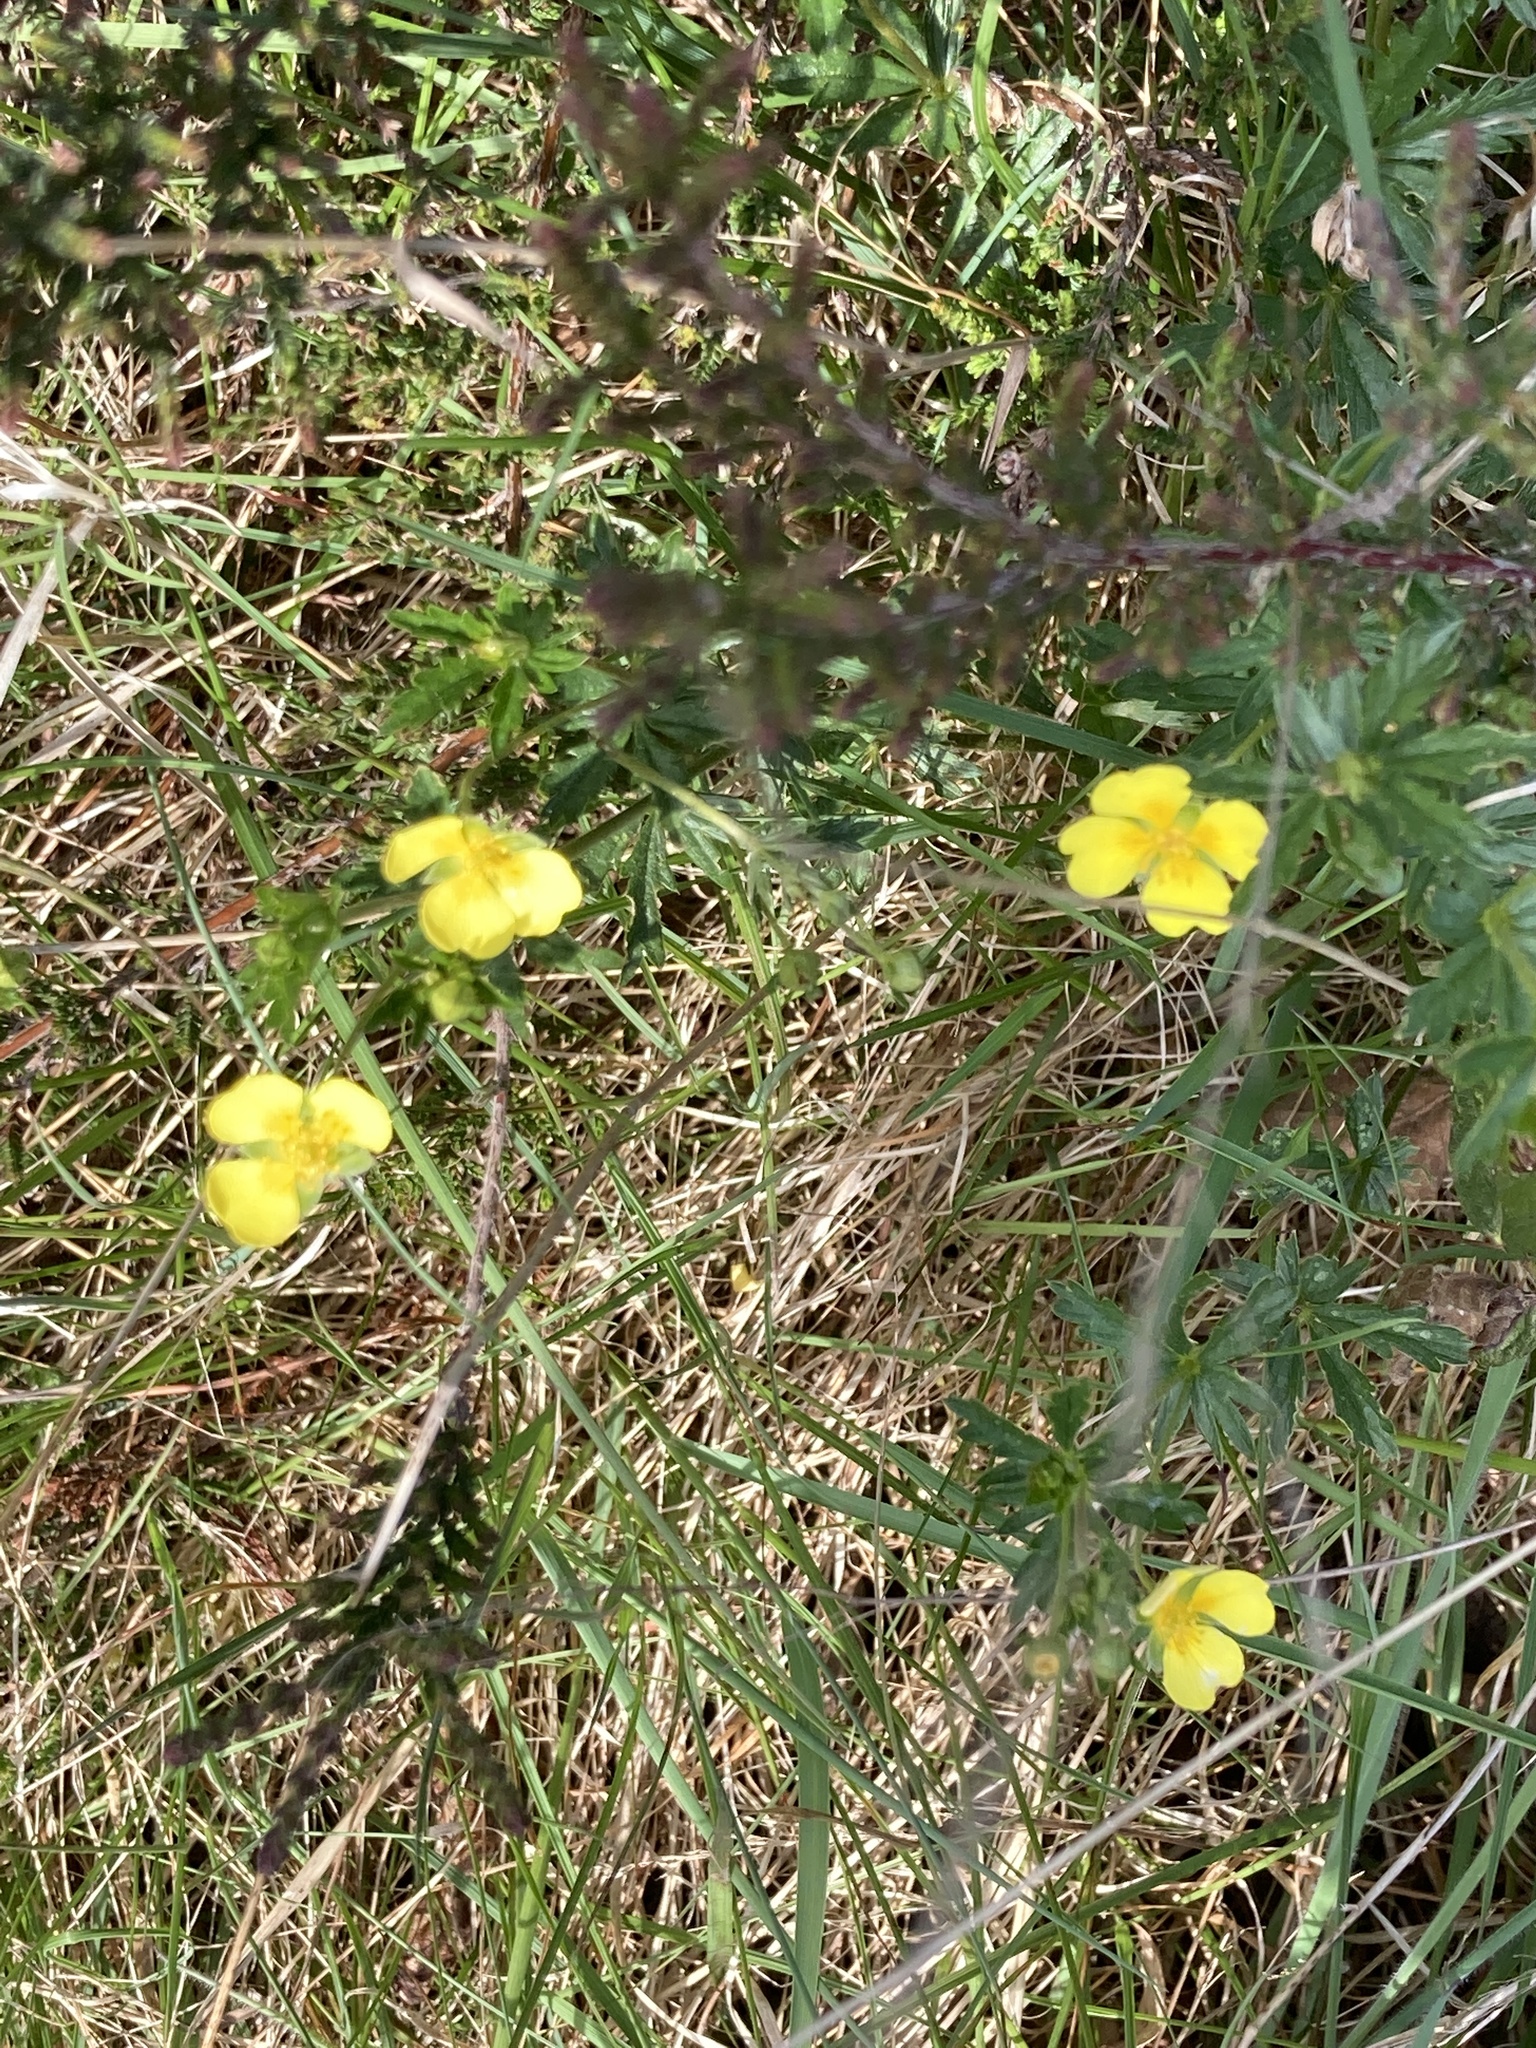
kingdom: Plantae
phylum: Tracheophyta
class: Magnoliopsida
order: Rosales
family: Rosaceae
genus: Potentilla
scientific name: Potentilla erecta
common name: Tormentil
